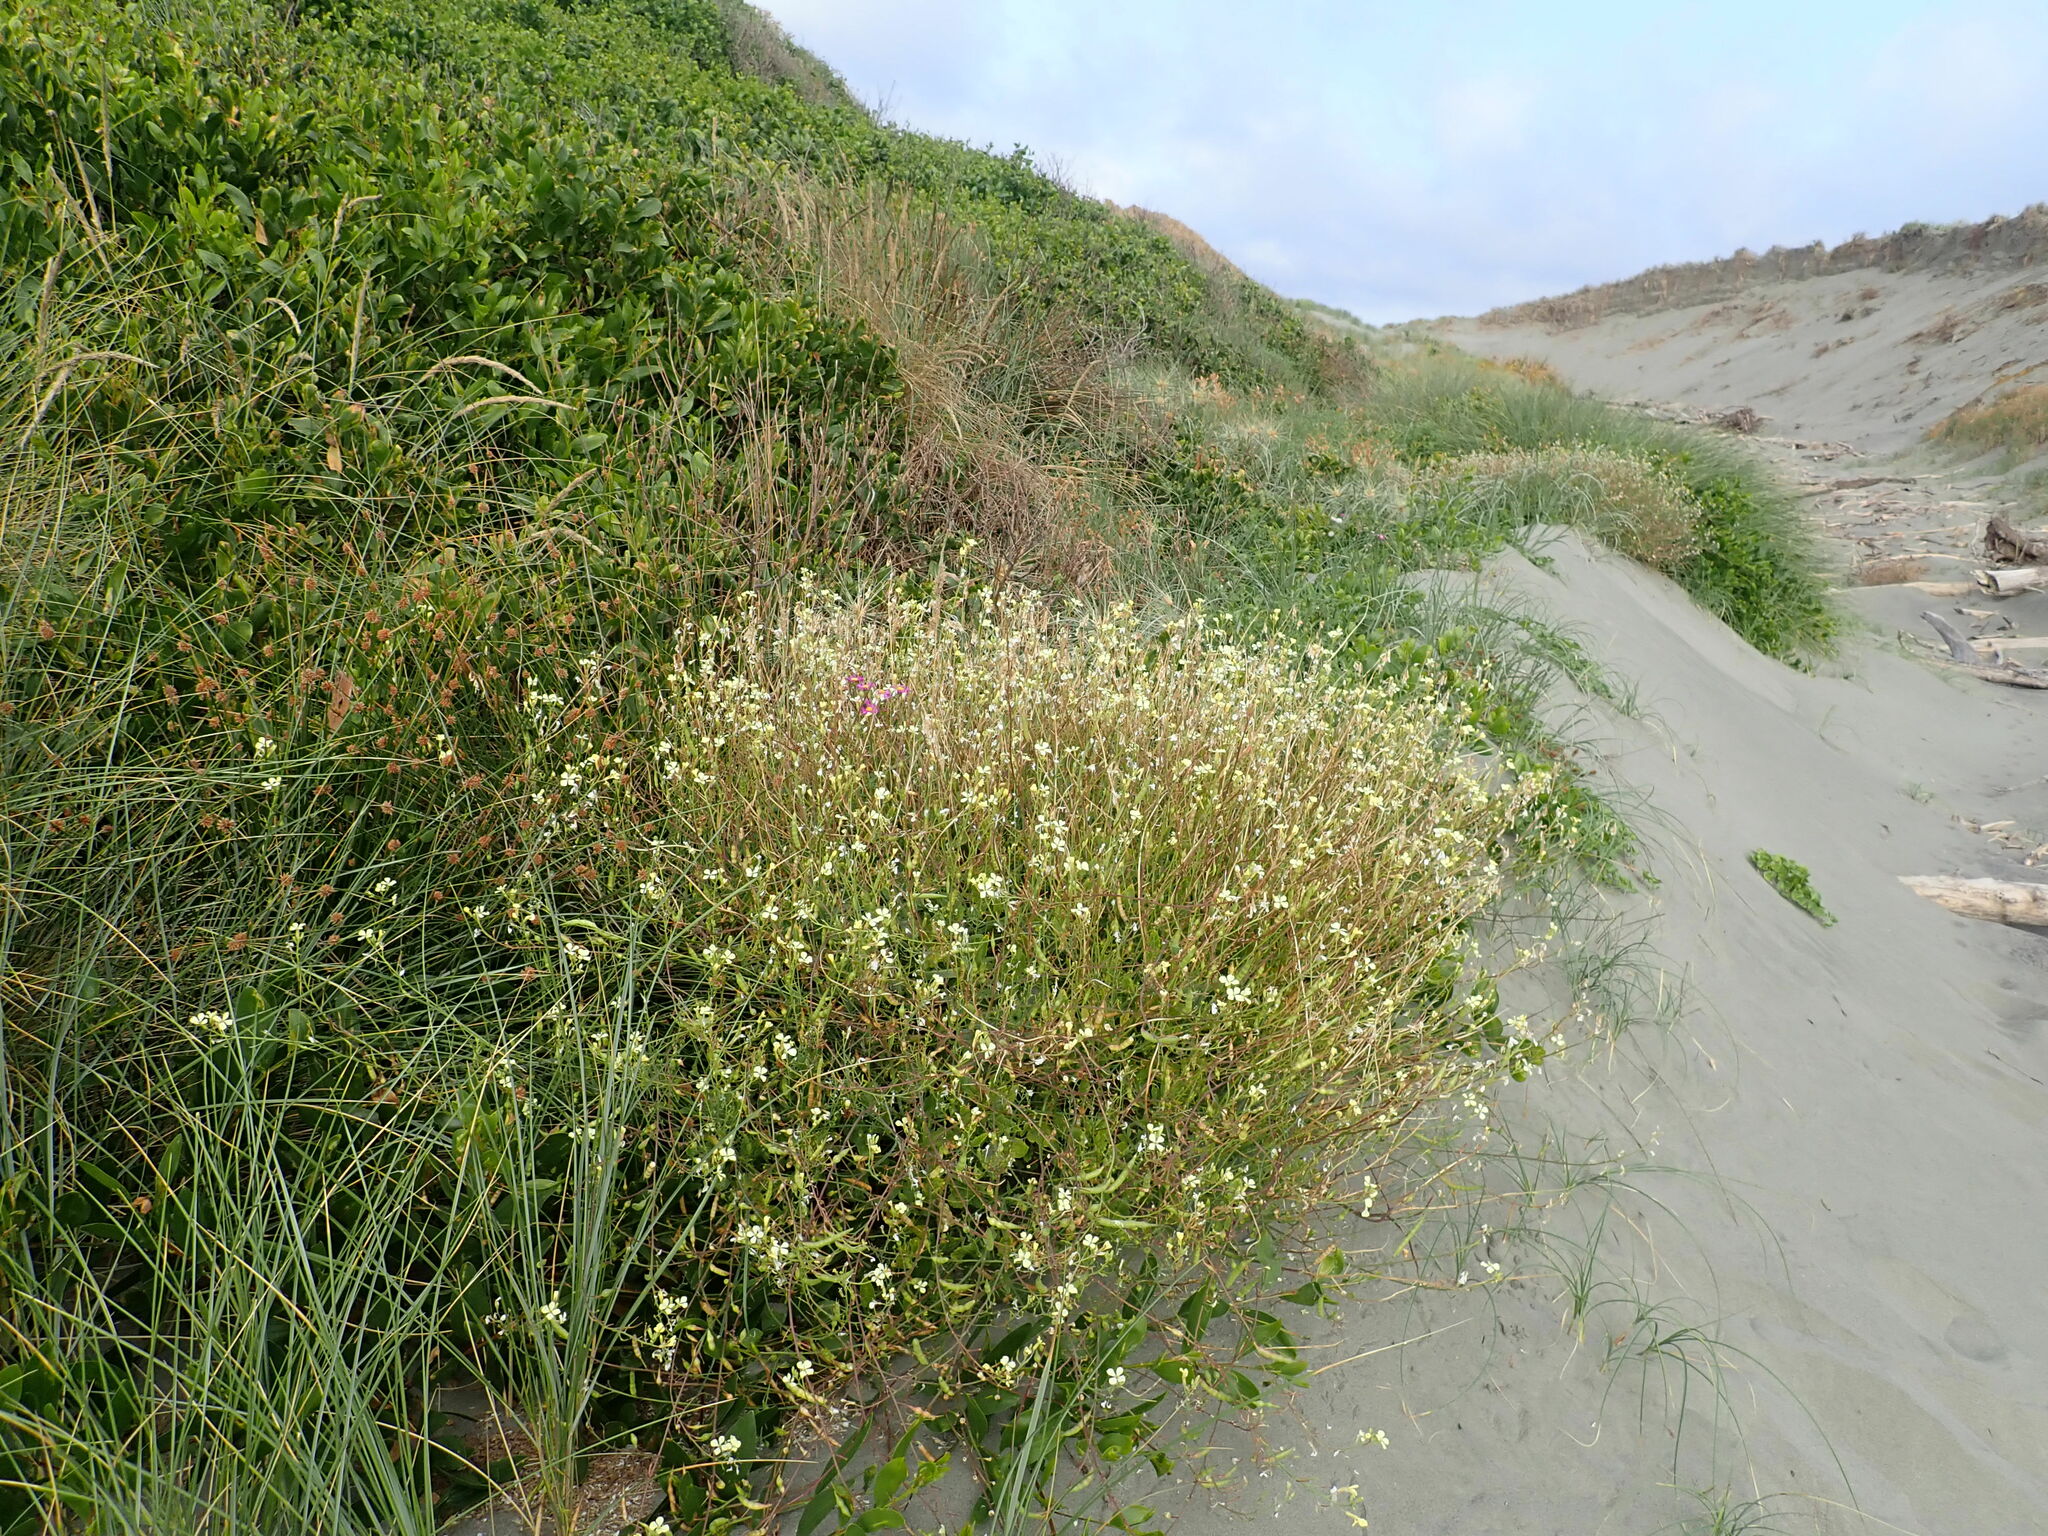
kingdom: Plantae
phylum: Tracheophyta
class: Magnoliopsida
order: Brassicales
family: Brassicaceae
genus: Raphanus
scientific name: Raphanus raphanistrum
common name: Wild radish
